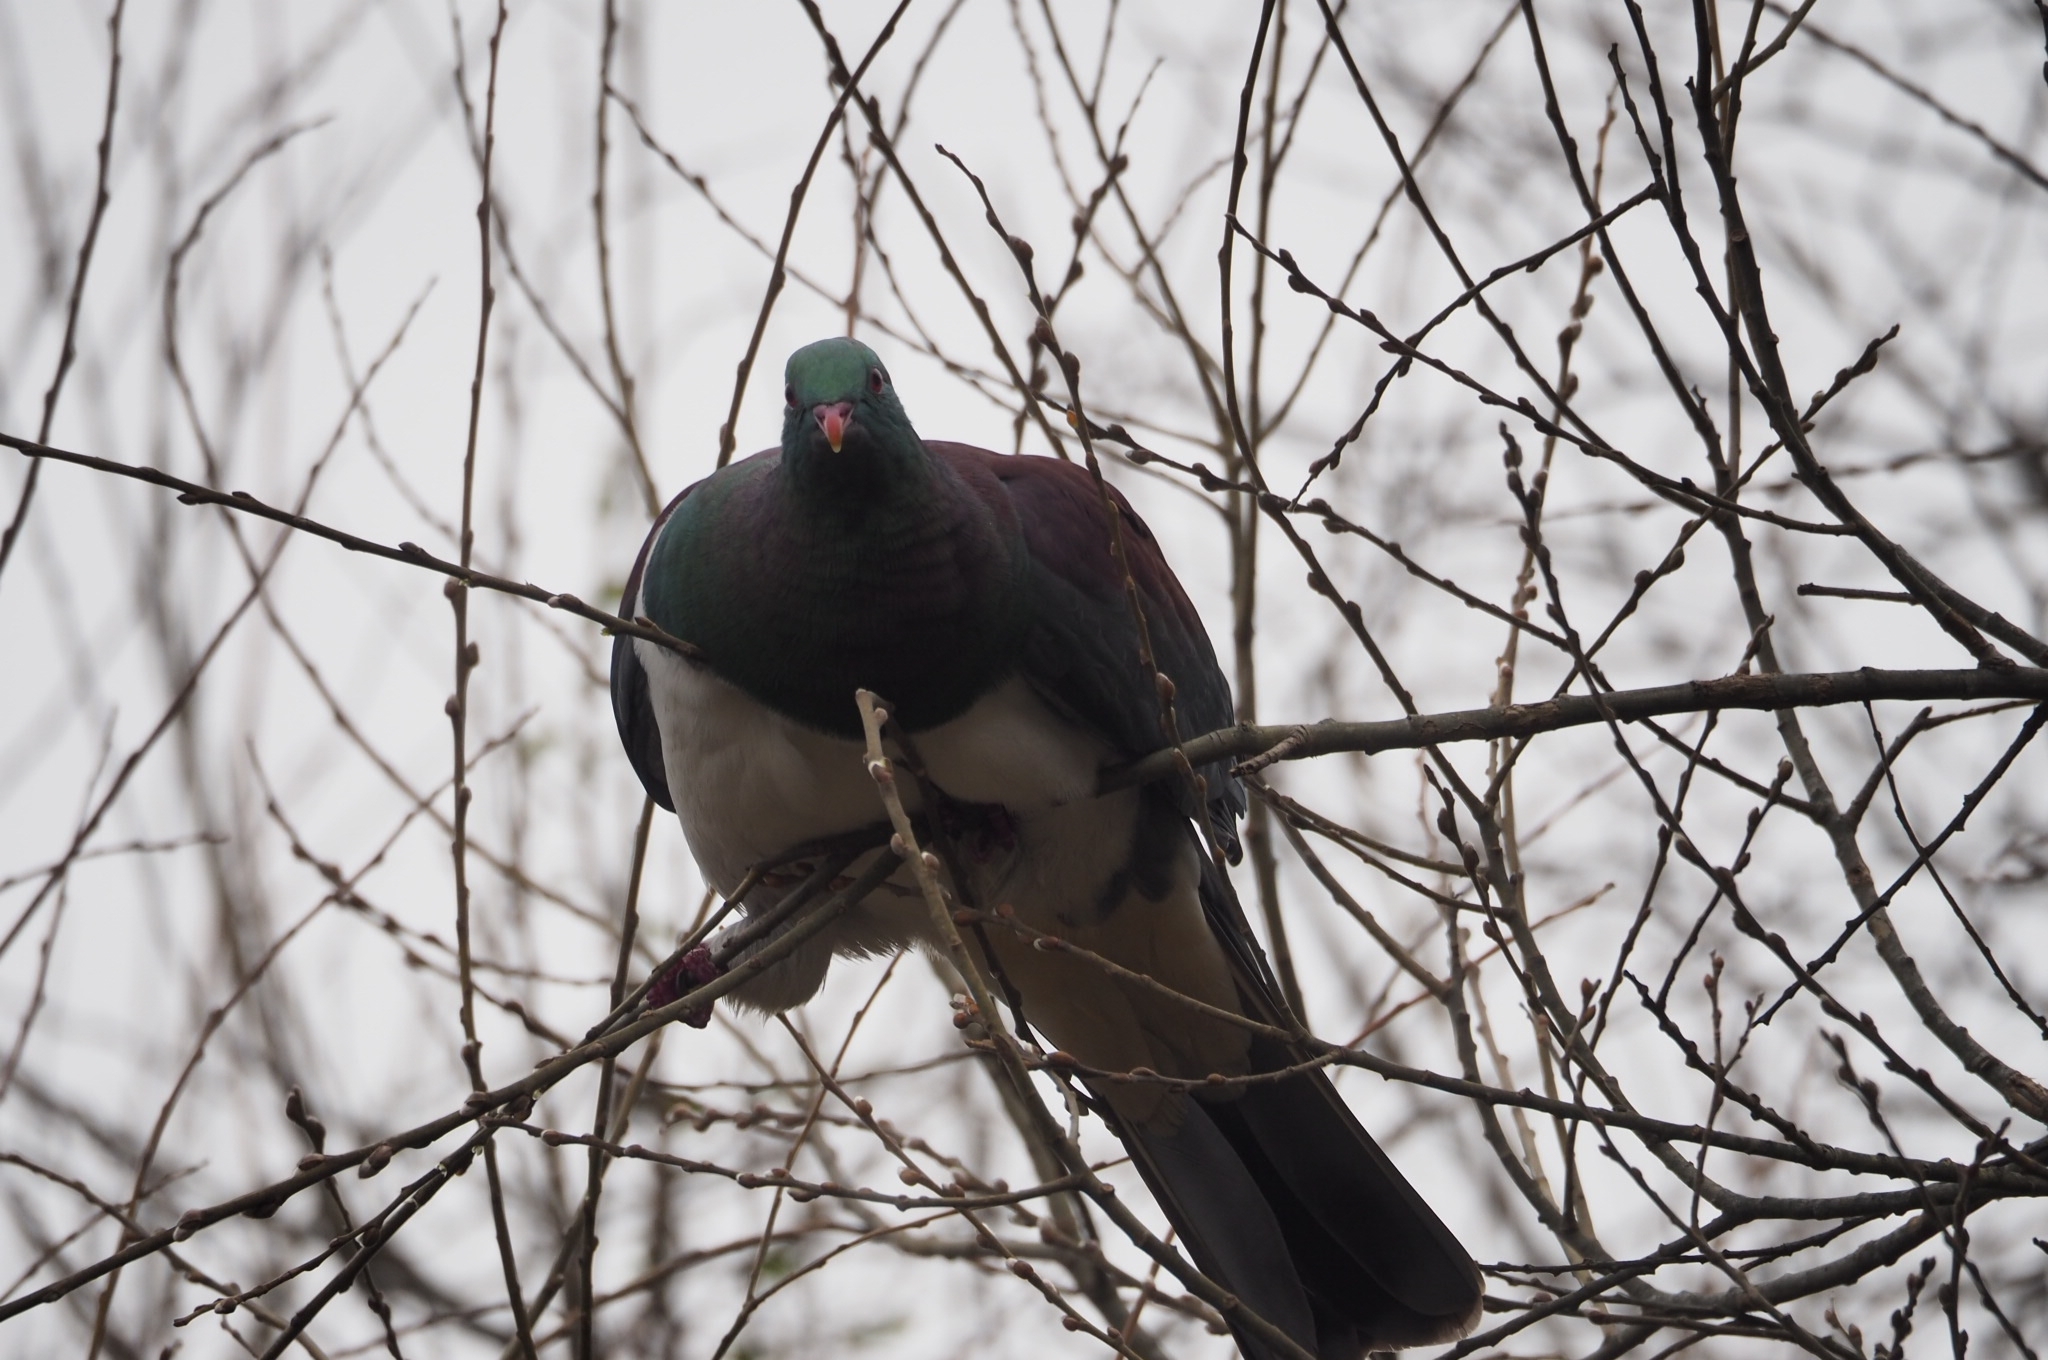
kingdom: Animalia
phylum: Chordata
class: Aves
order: Columbiformes
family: Columbidae
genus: Hemiphaga
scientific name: Hemiphaga novaeseelandiae
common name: New zealand pigeon
